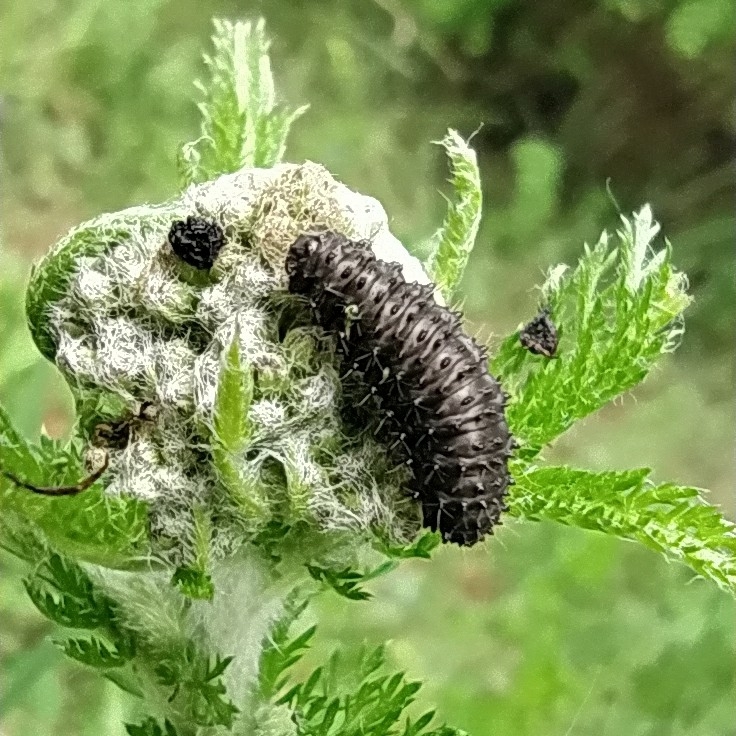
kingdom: Animalia
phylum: Arthropoda
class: Insecta
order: Coleoptera
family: Chrysomelidae
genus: Galeruca
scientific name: Galeruca tanaceti
